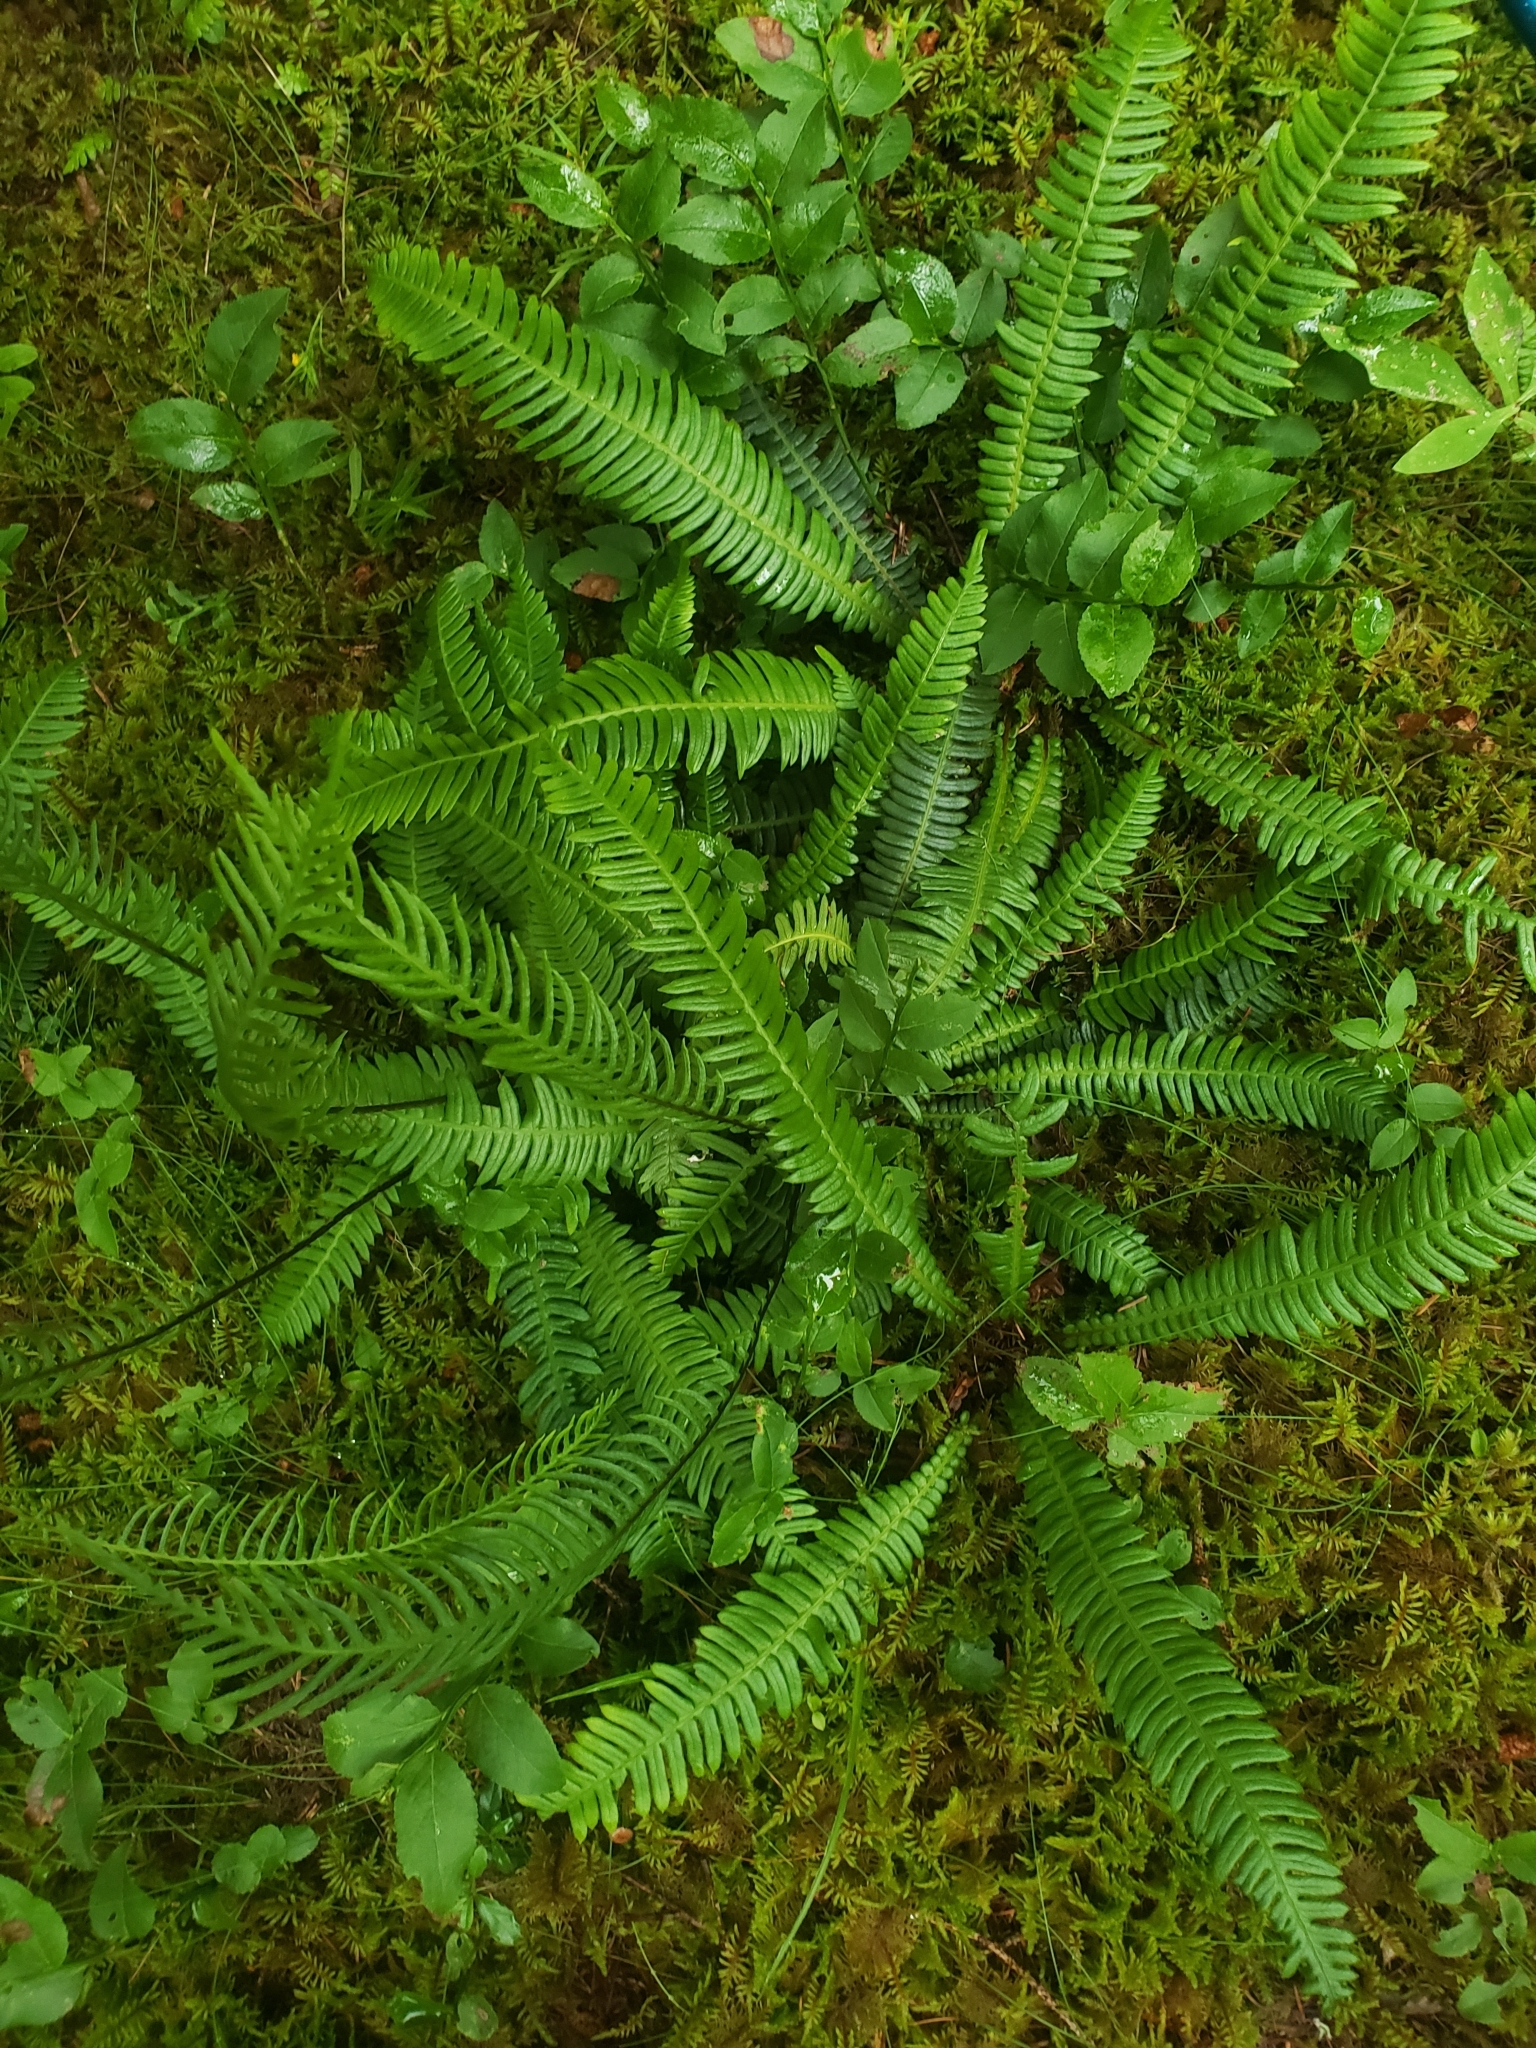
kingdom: Plantae
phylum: Tracheophyta
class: Polypodiopsida
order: Polypodiales
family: Blechnaceae
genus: Struthiopteris
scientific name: Struthiopteris spicant
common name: Deer fern
